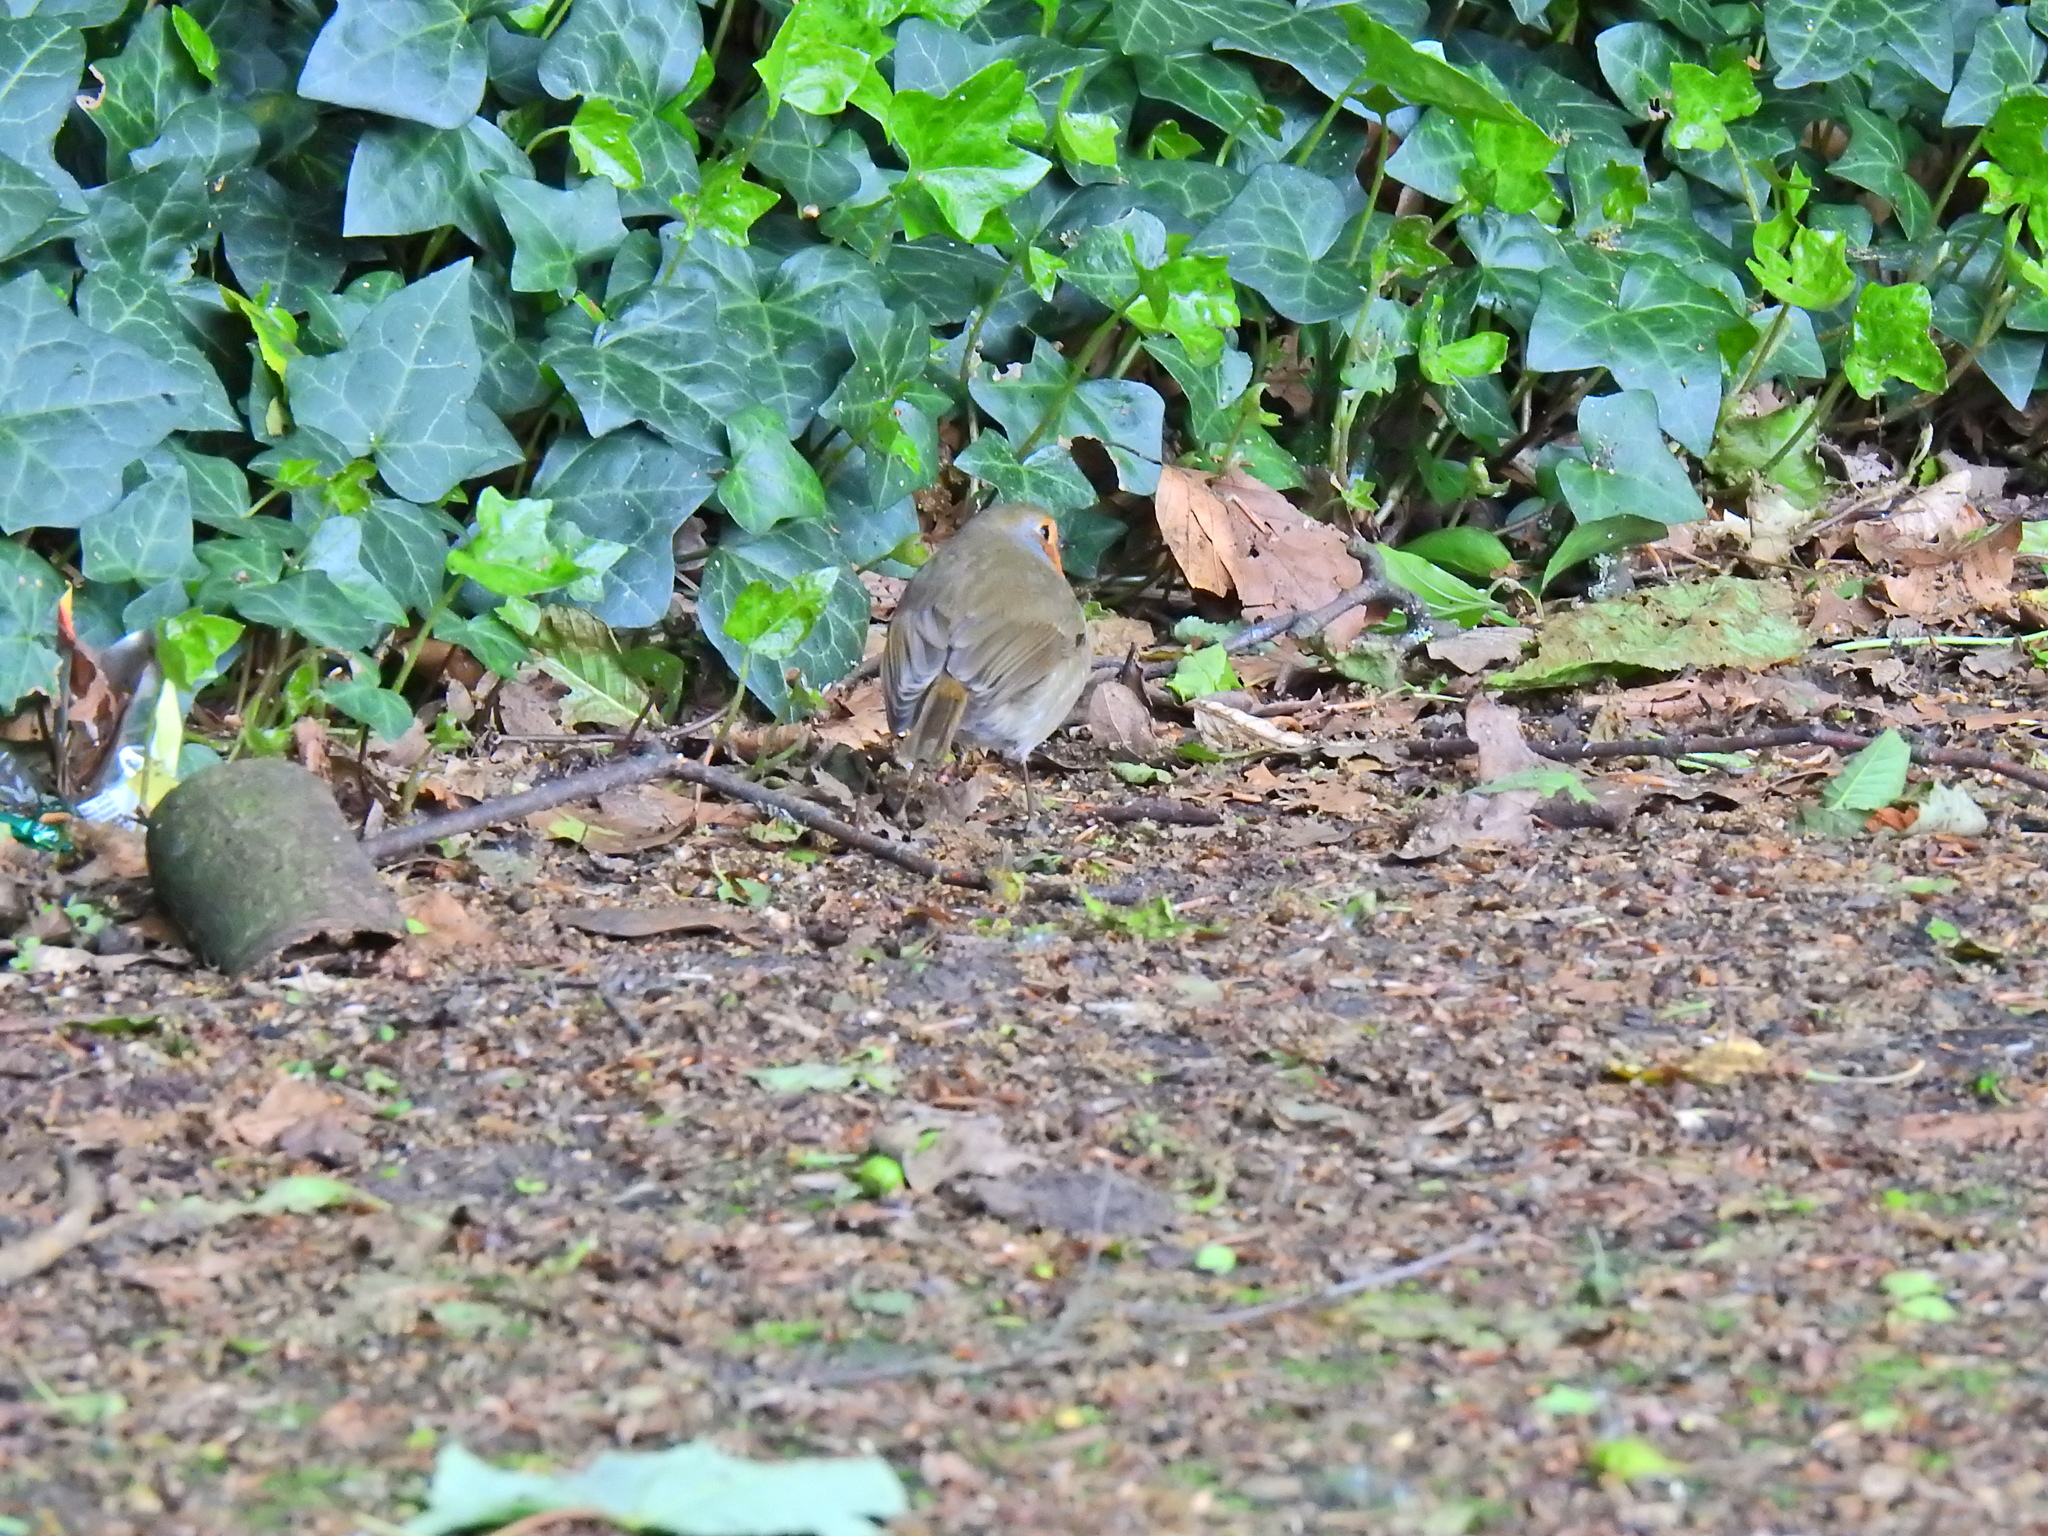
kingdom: Animalia
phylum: Chordata
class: Aves
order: Passeriformes
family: Muscicapidae
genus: Erithacus
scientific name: Erithacus rubecula
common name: European robin
